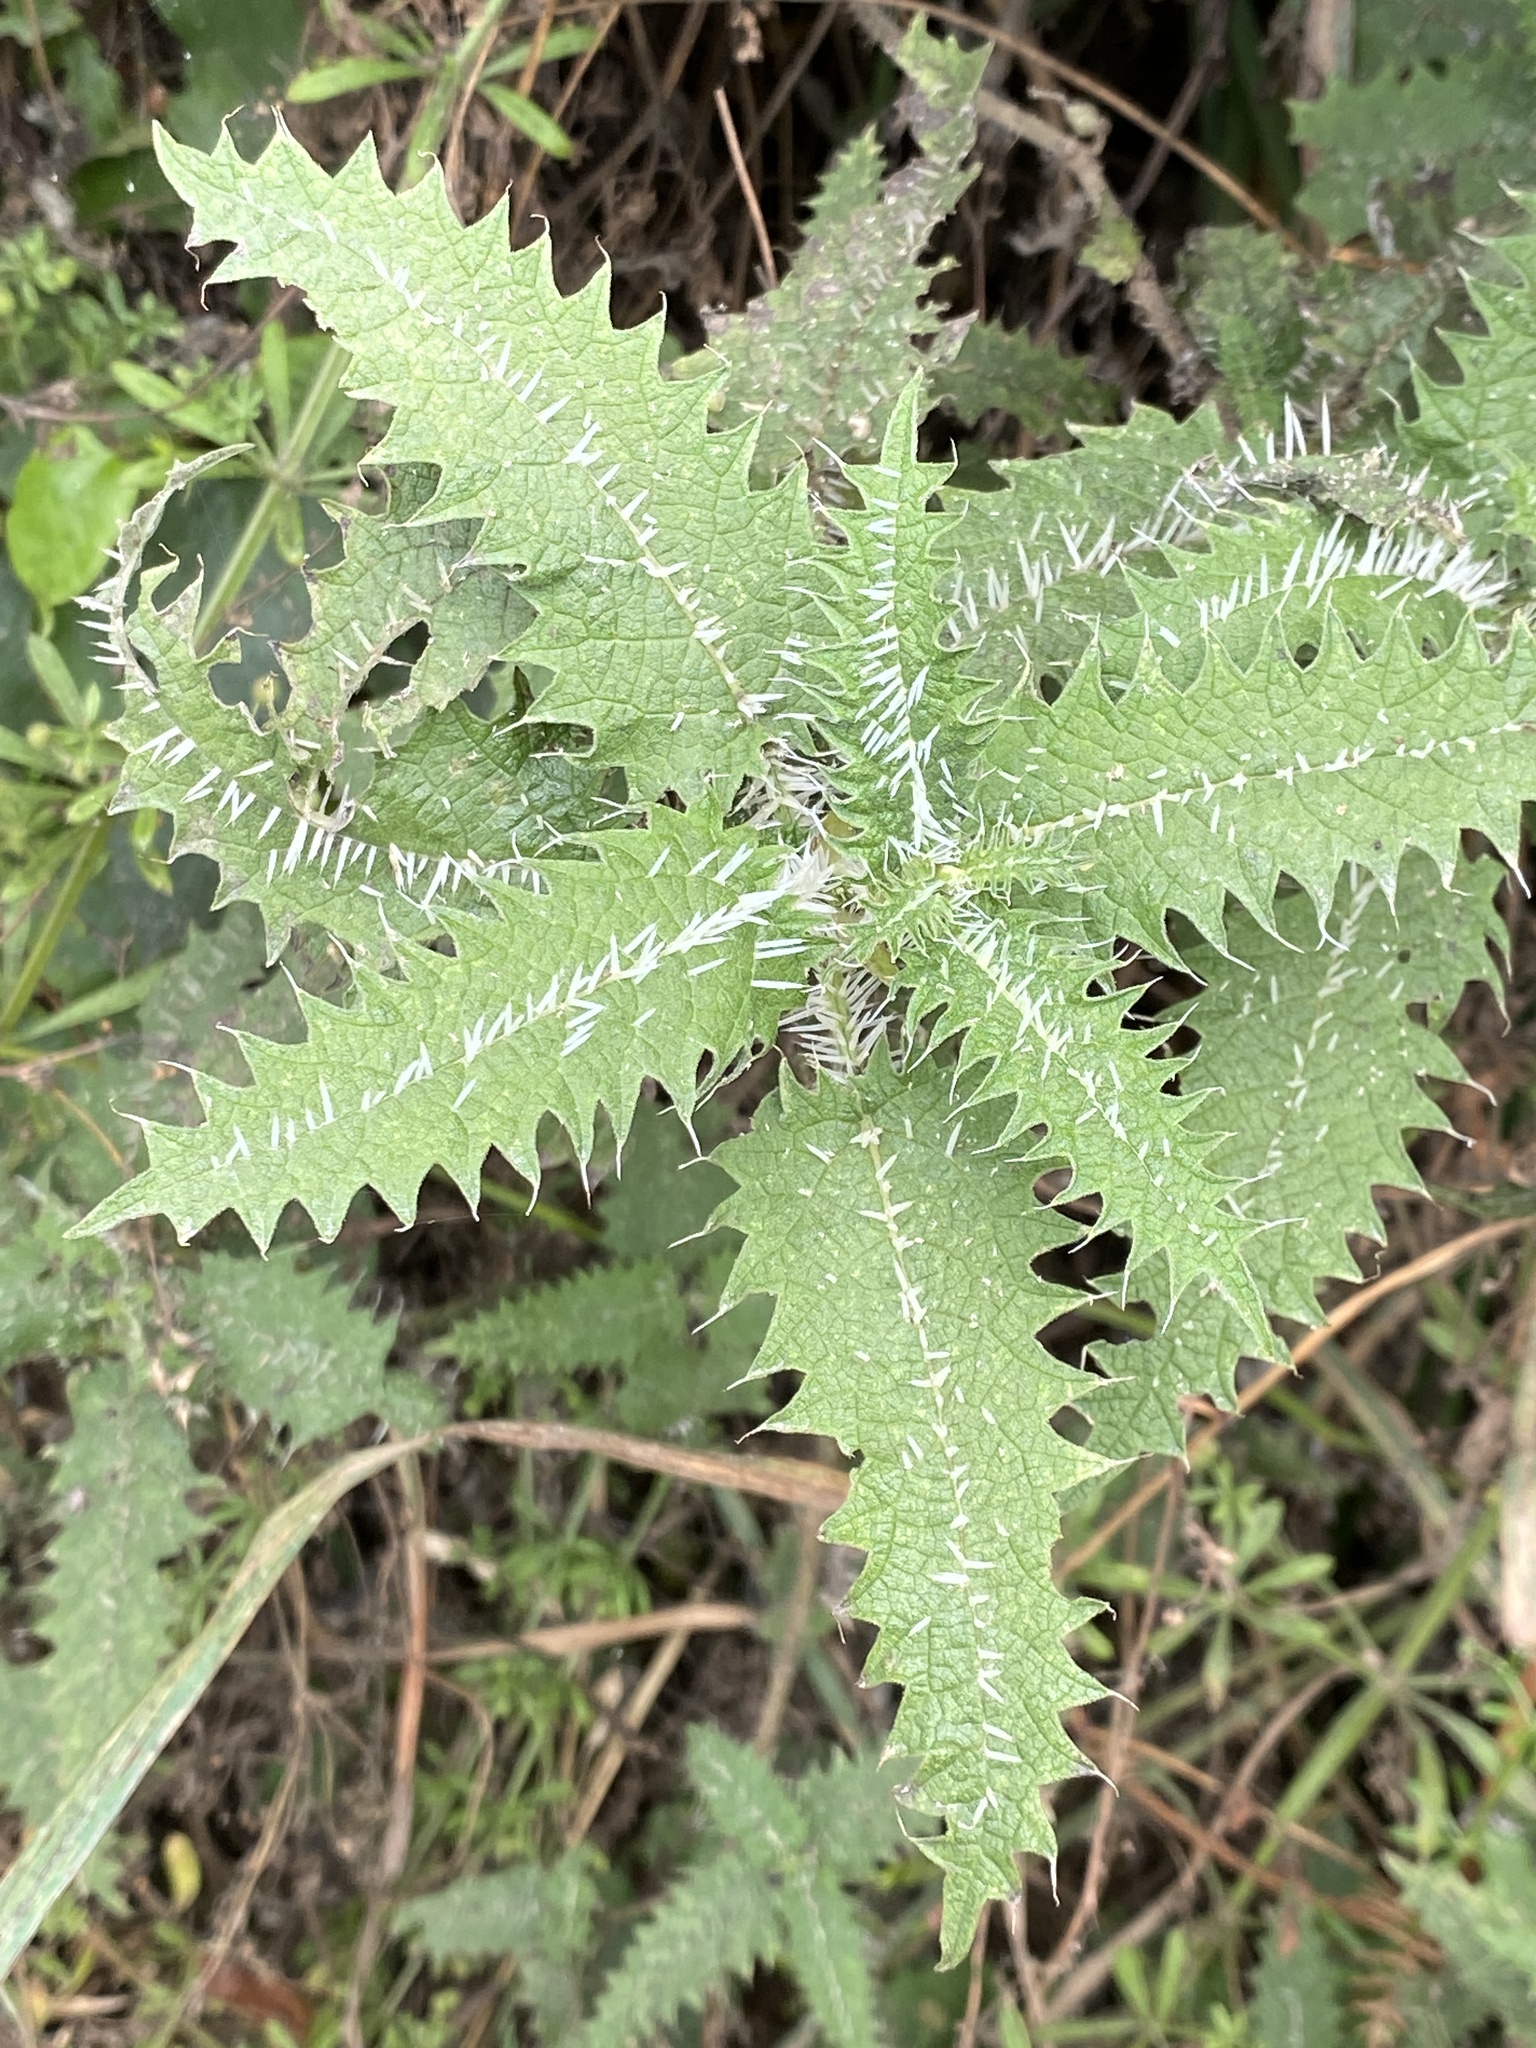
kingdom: Plantae
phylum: Tracheophyta
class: Magnoliopsida
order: Rosales
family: Urticaceae
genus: Urtica
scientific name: Urtica ferox
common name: Tree nettle
